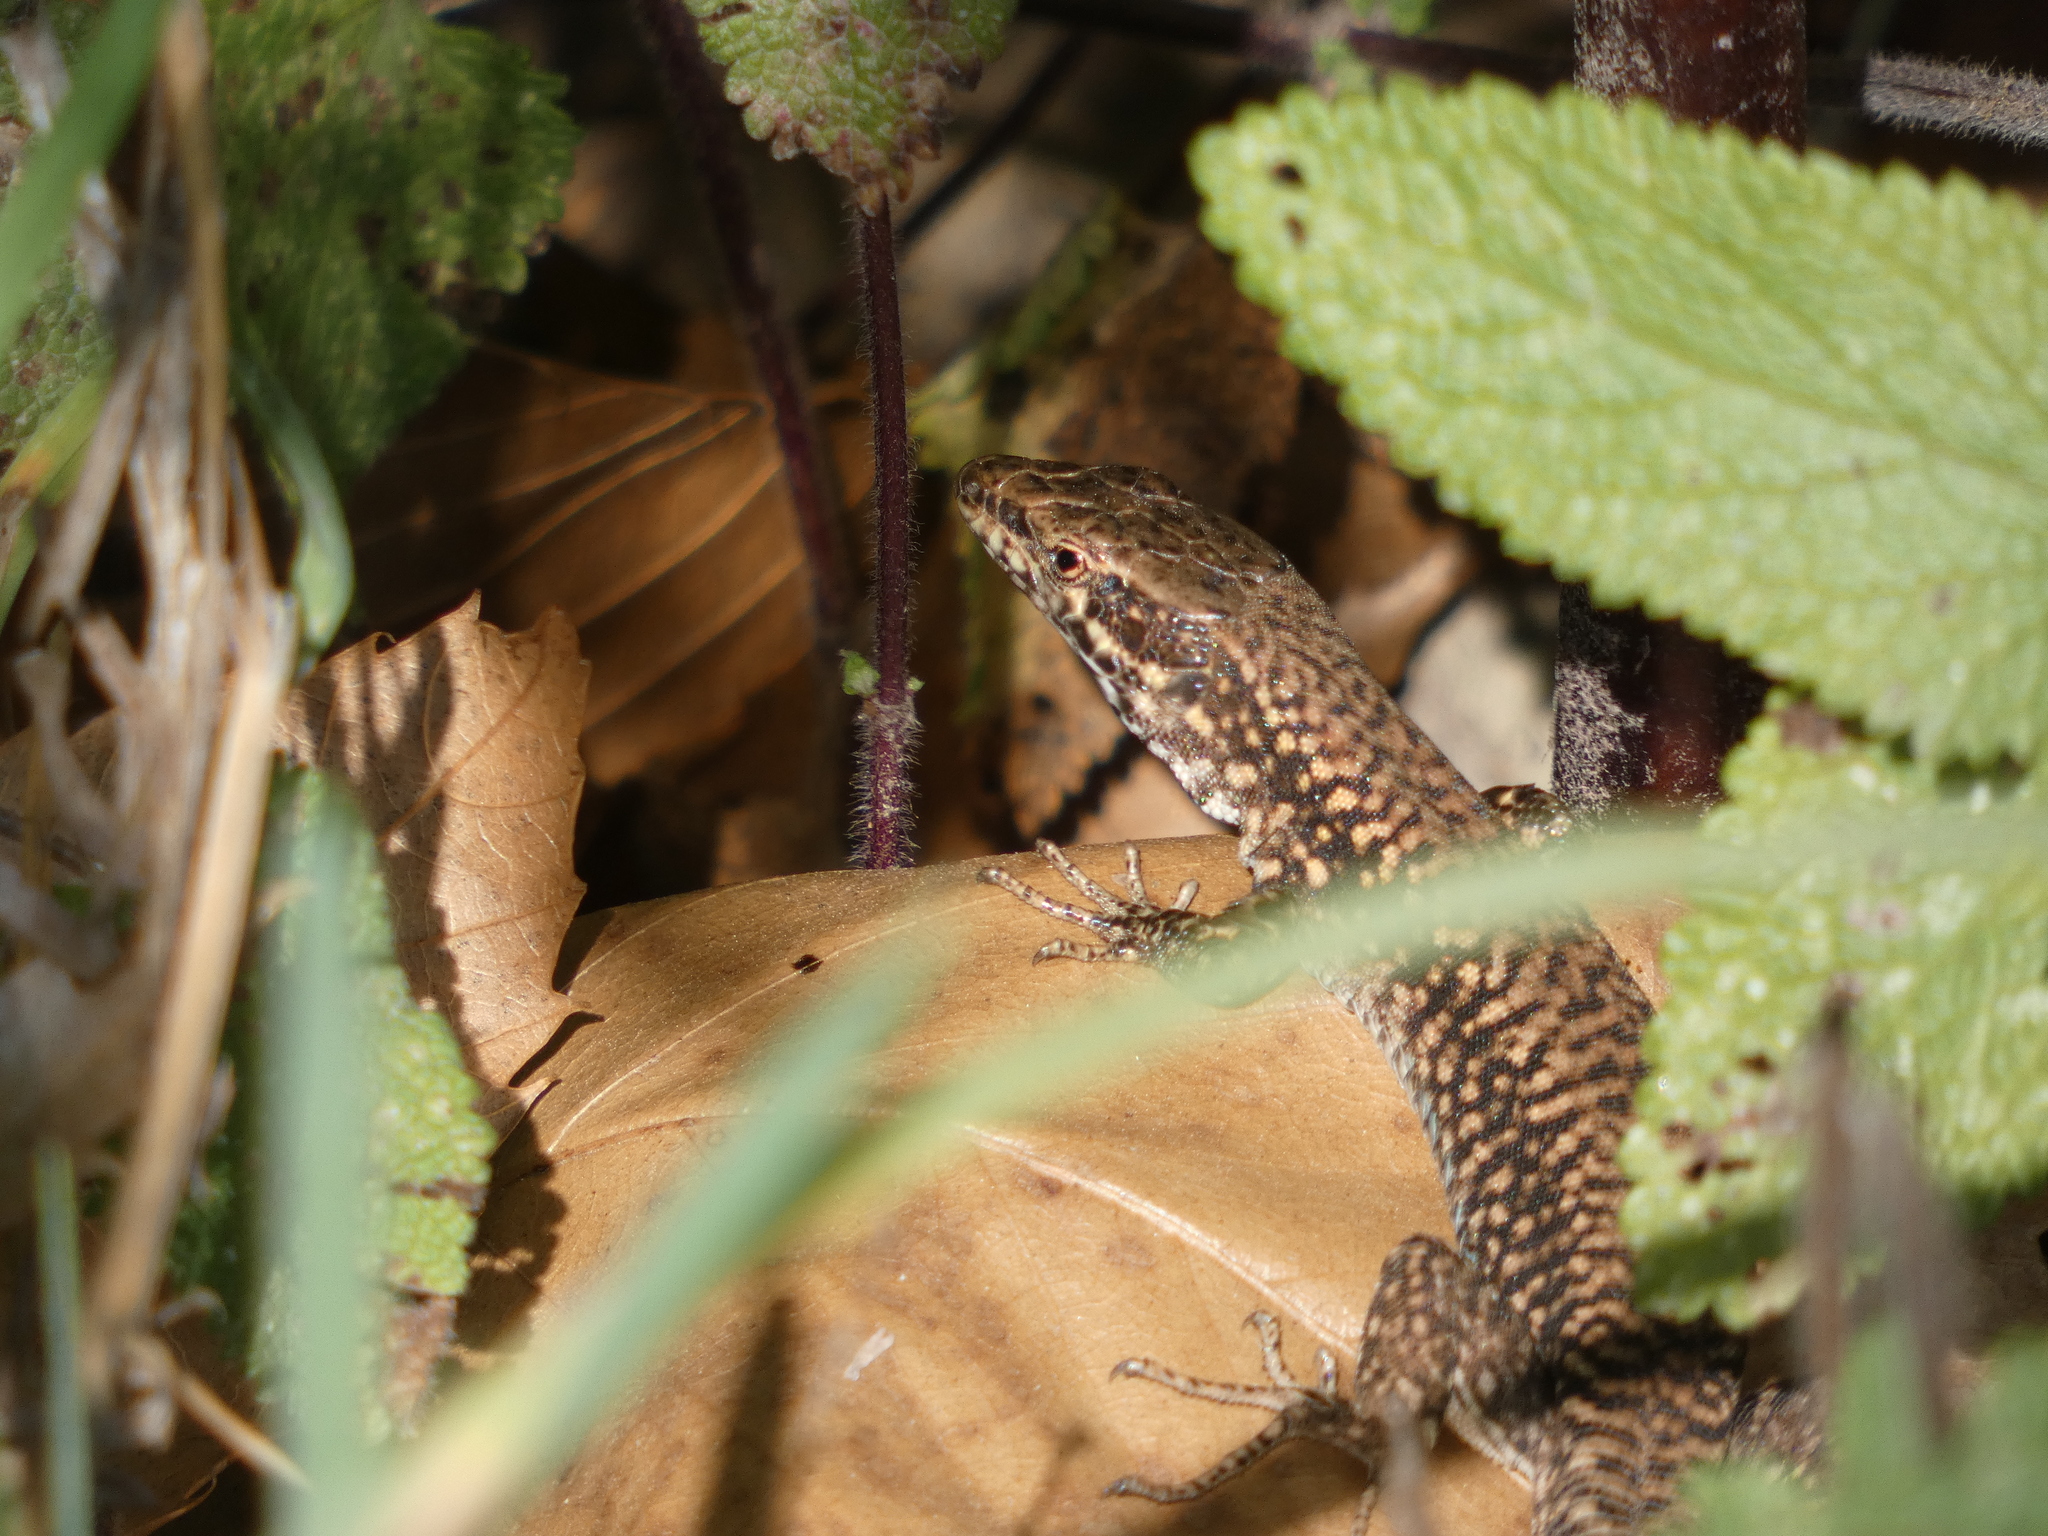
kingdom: Animalia
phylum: Chordata
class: Squamata
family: Lacertidae
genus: Podarcis
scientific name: Podarcis muralis
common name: Common wall lizard
